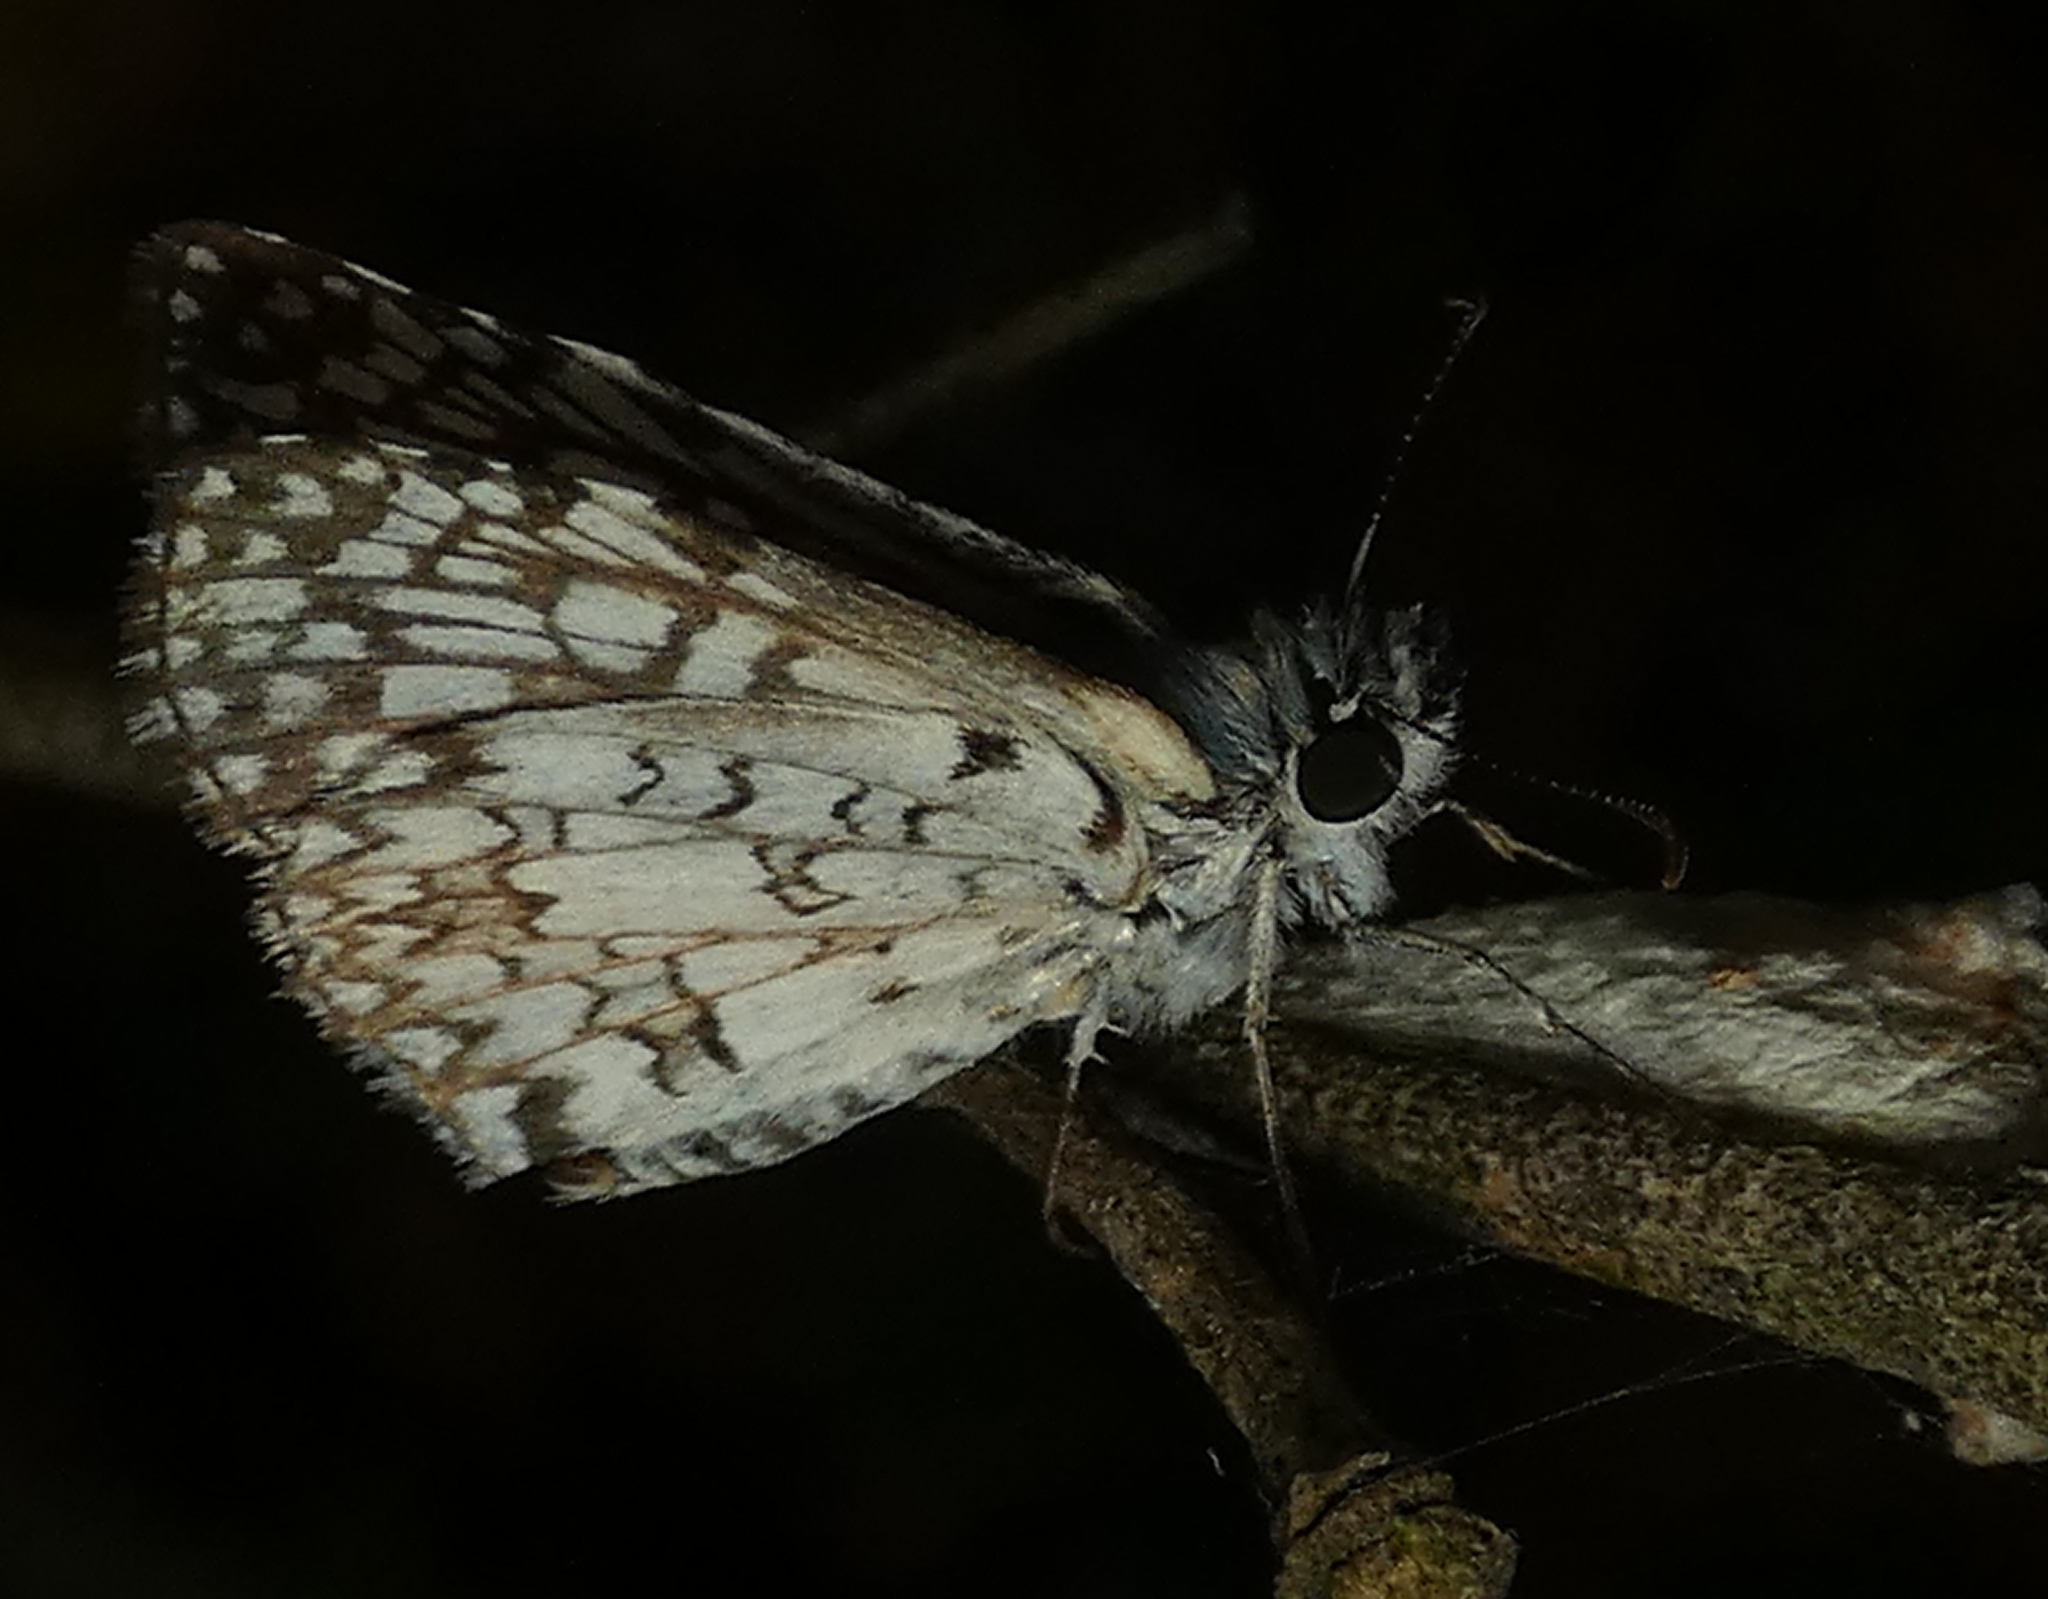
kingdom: Animalia
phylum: Arthropoda
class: Insecta
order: Lepidoptera
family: Hesperiidae
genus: Pyrgus
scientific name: Pyrgus oileus
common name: Tropical checkered-skipper
